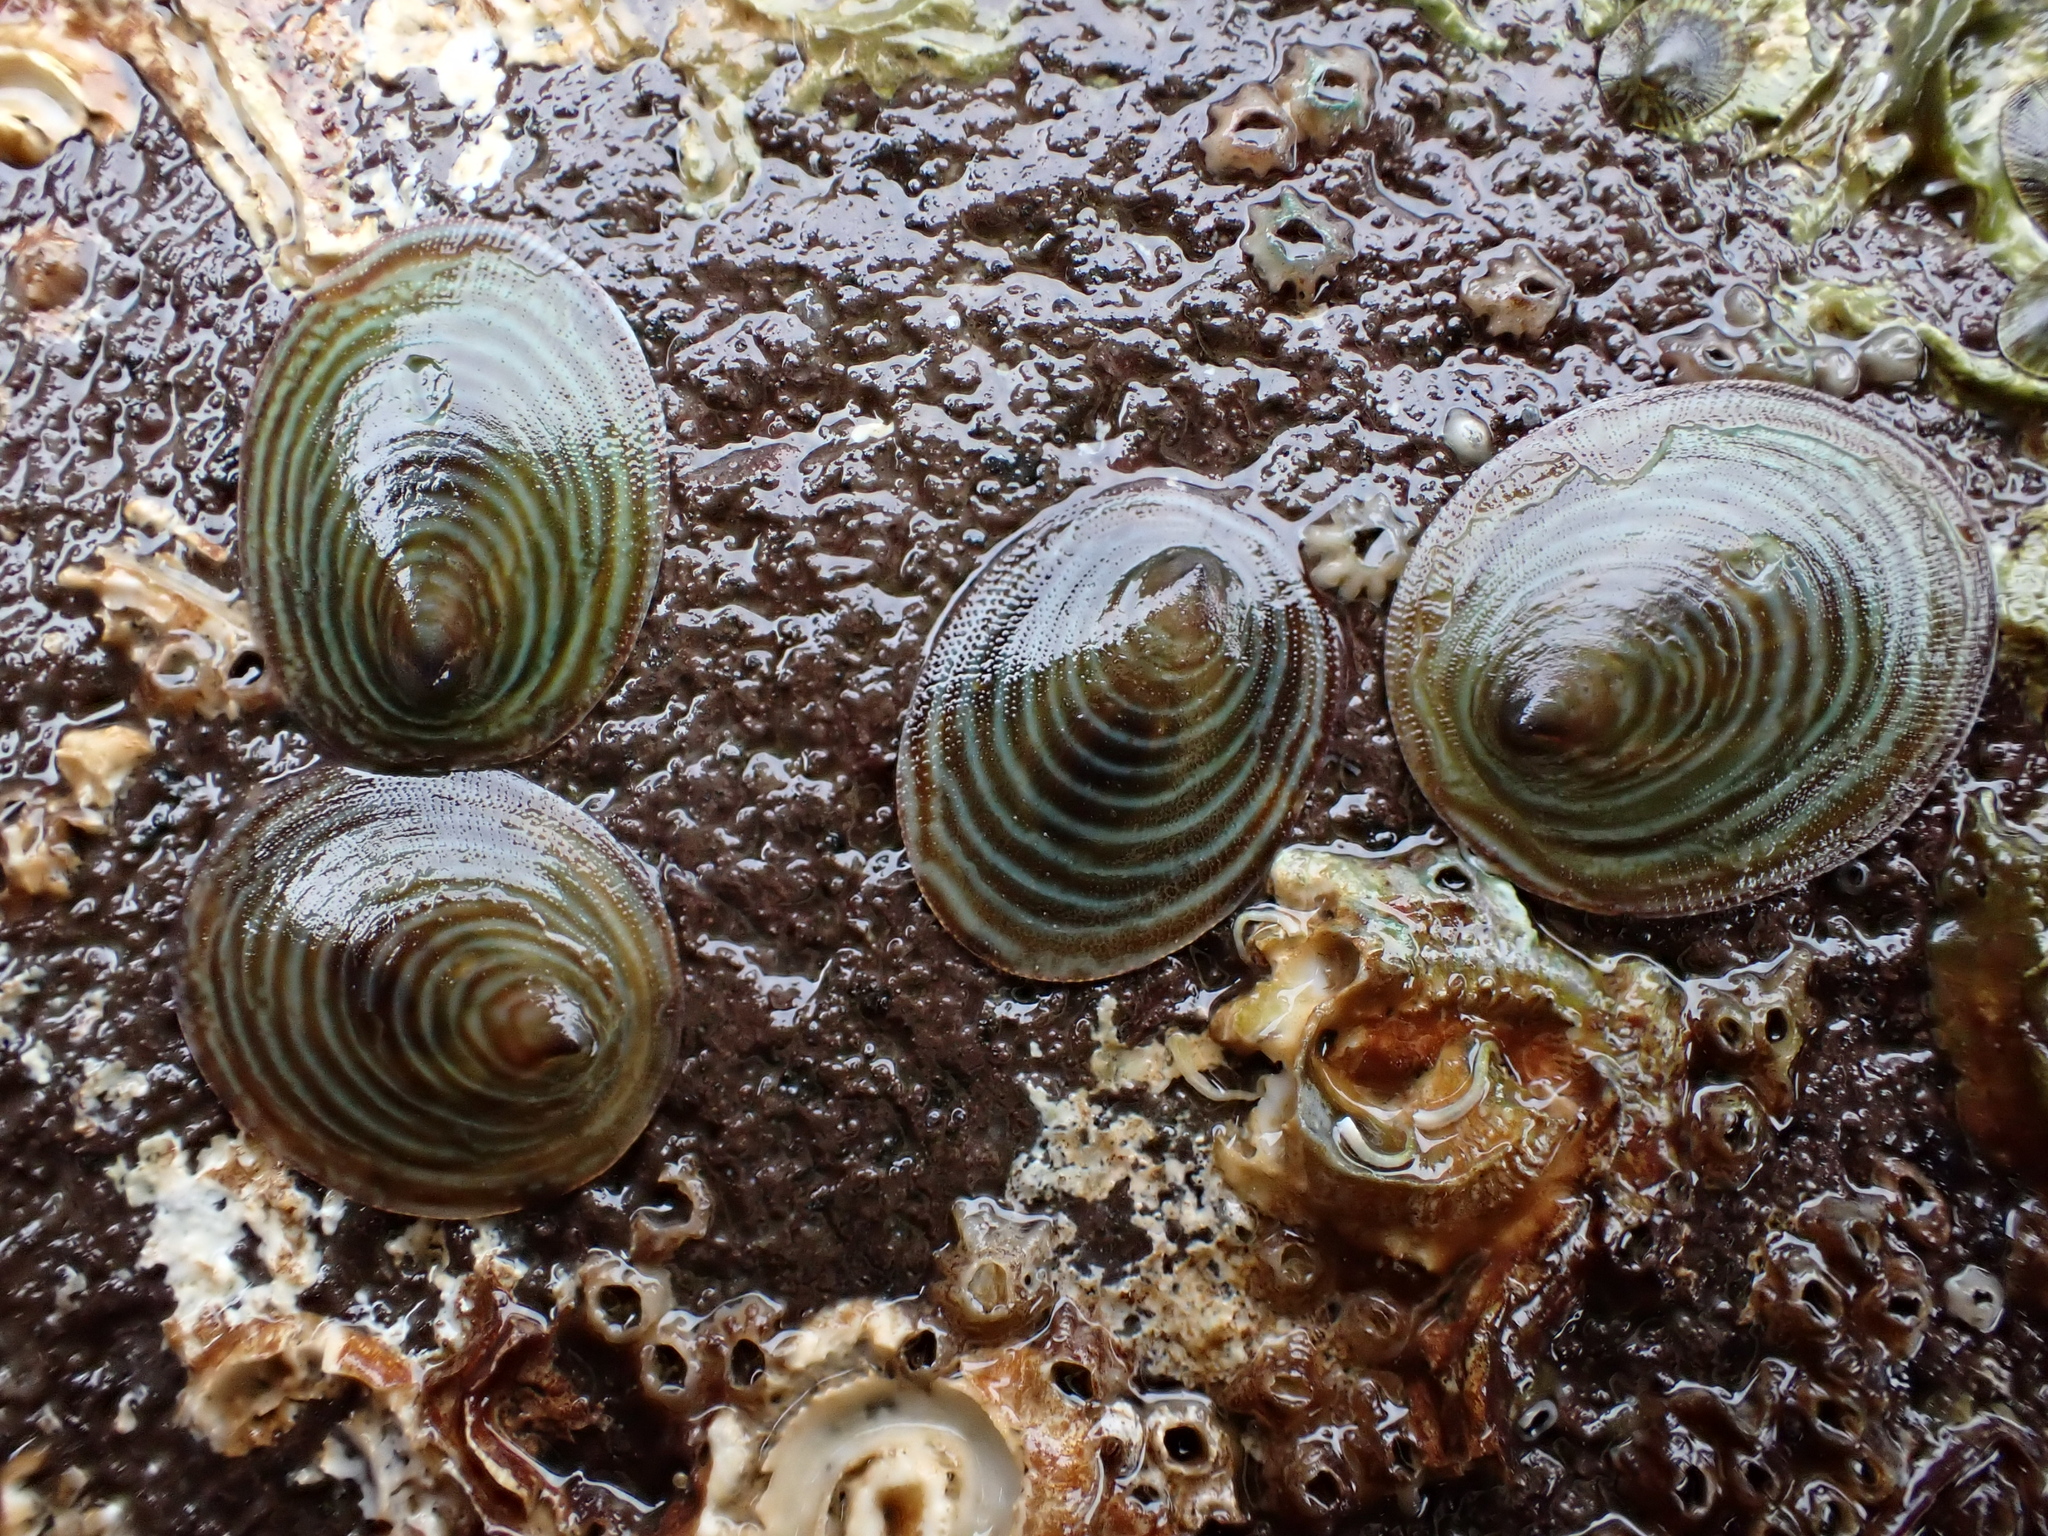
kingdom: Animalia
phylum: Mollusca
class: Gastropoda
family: Lottiidae
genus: Atalacmea
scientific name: Atalacmea fragilis
